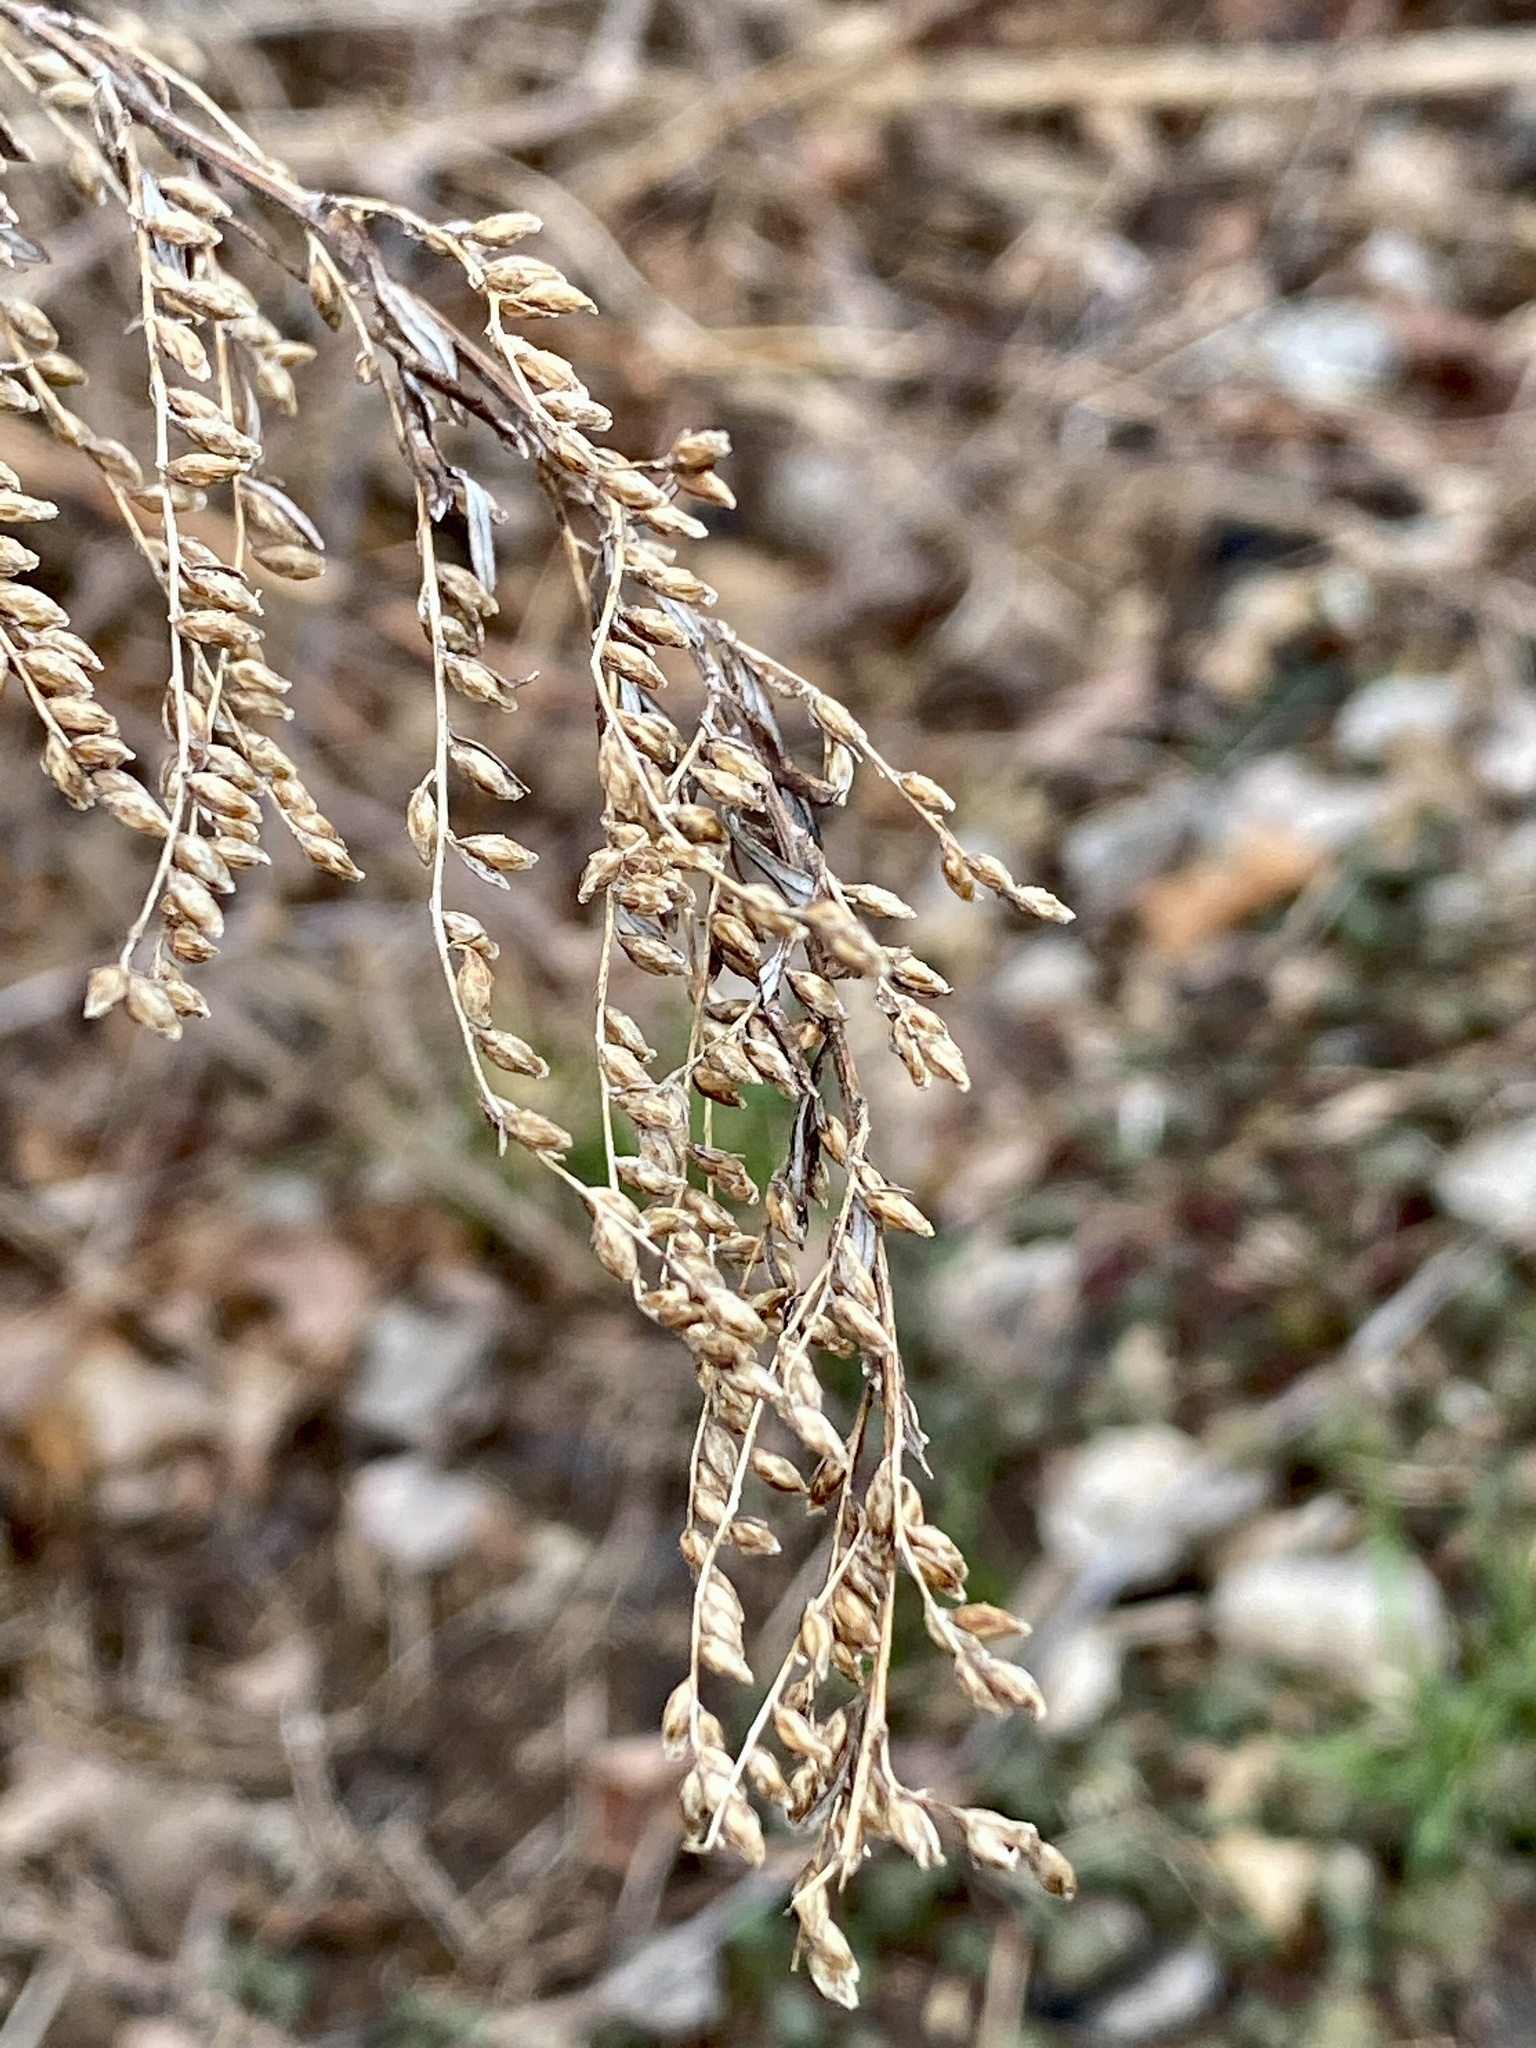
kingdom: Plantae
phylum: Tracheophyta
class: Magnoliopsida
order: Asterales
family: Asteraceae
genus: Artemisia
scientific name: Artemisia vulgaris
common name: Mugwort
